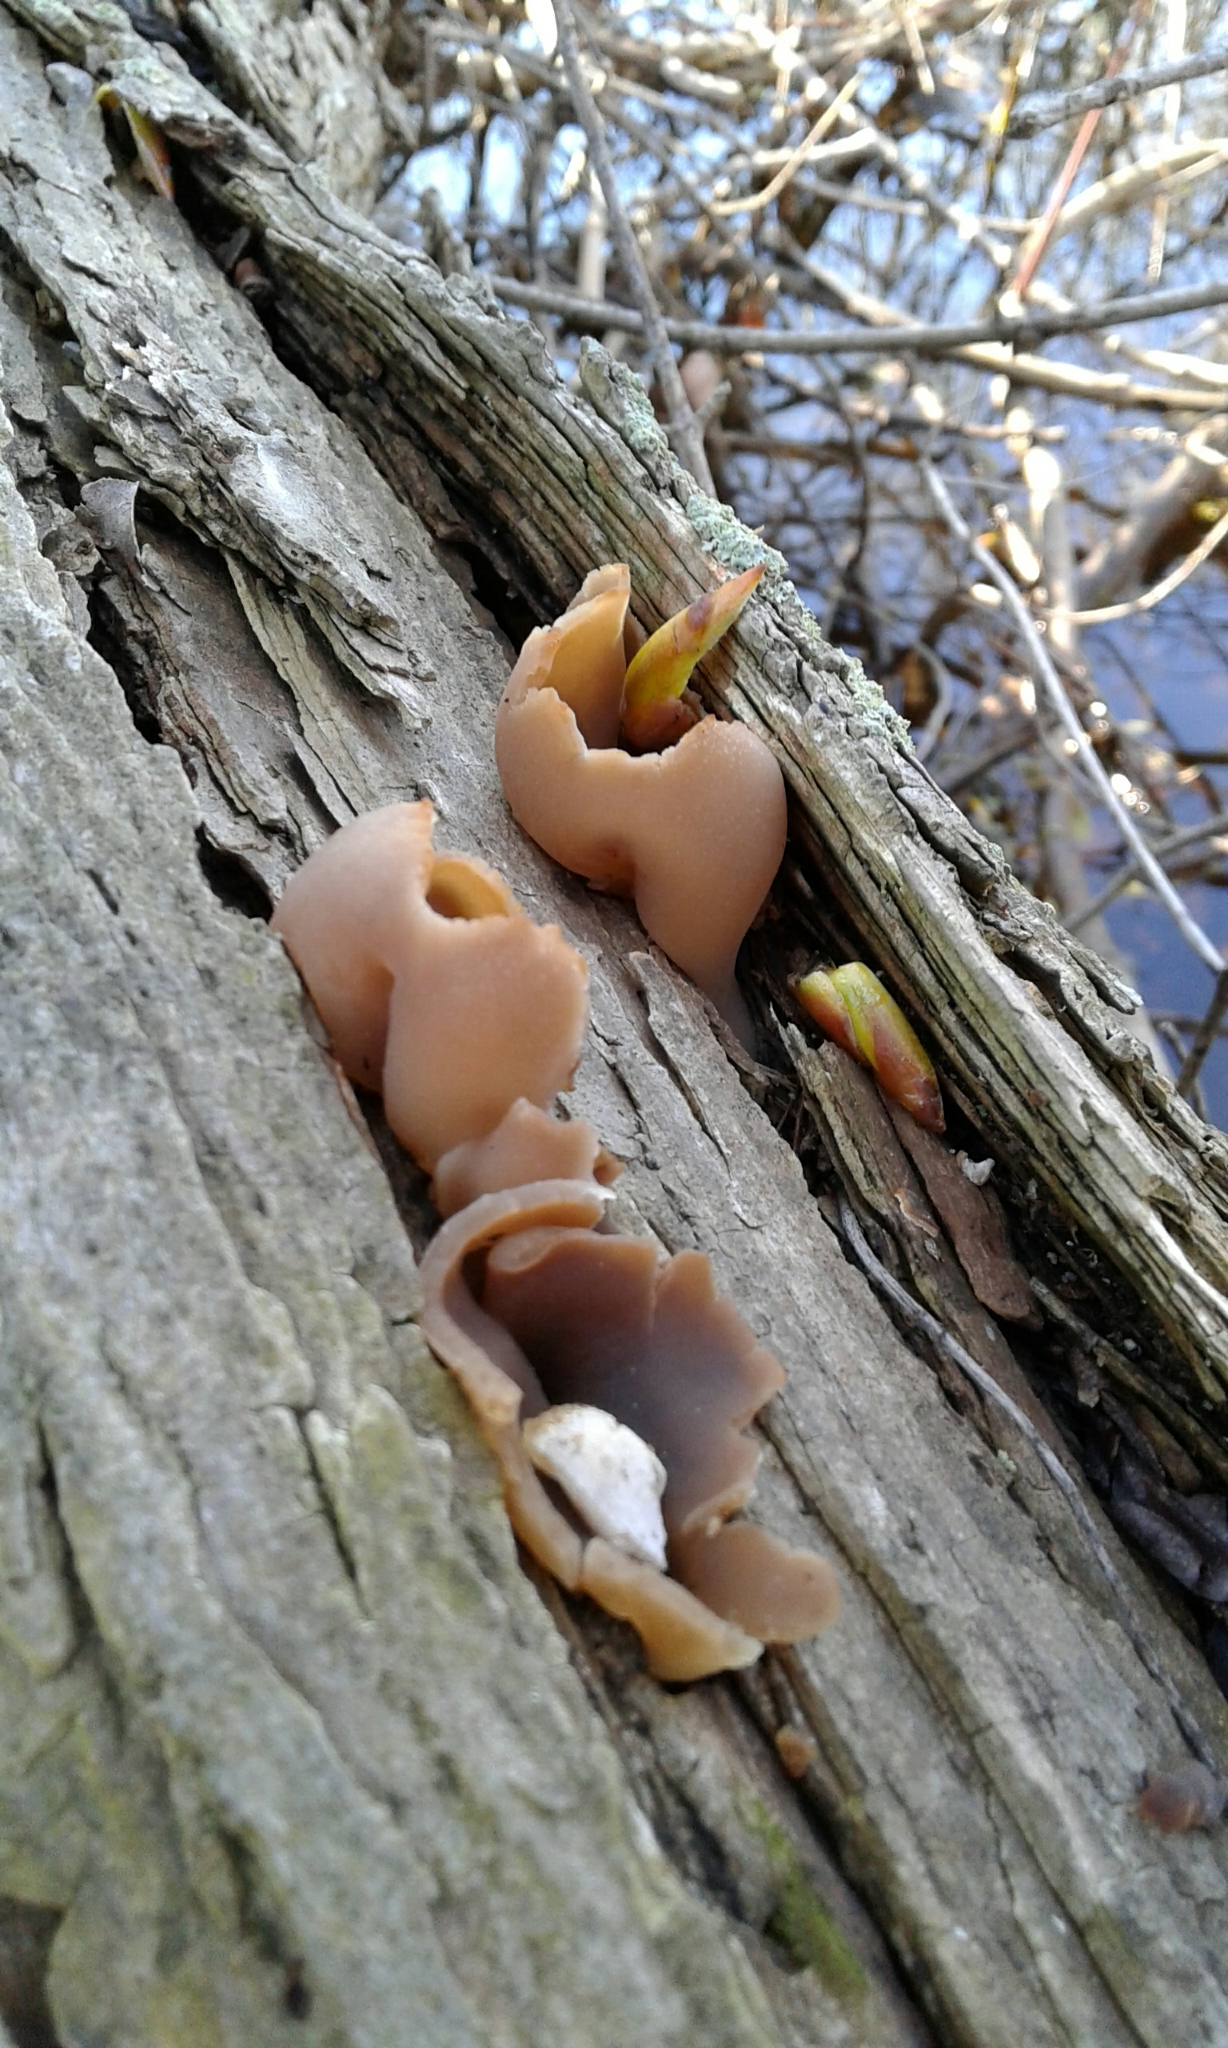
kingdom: Fungi
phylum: Ascomycota
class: Pezizomycetes
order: Pezizales
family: Pezizaceae
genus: Peziza
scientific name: Peziza varia
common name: Layered cup
